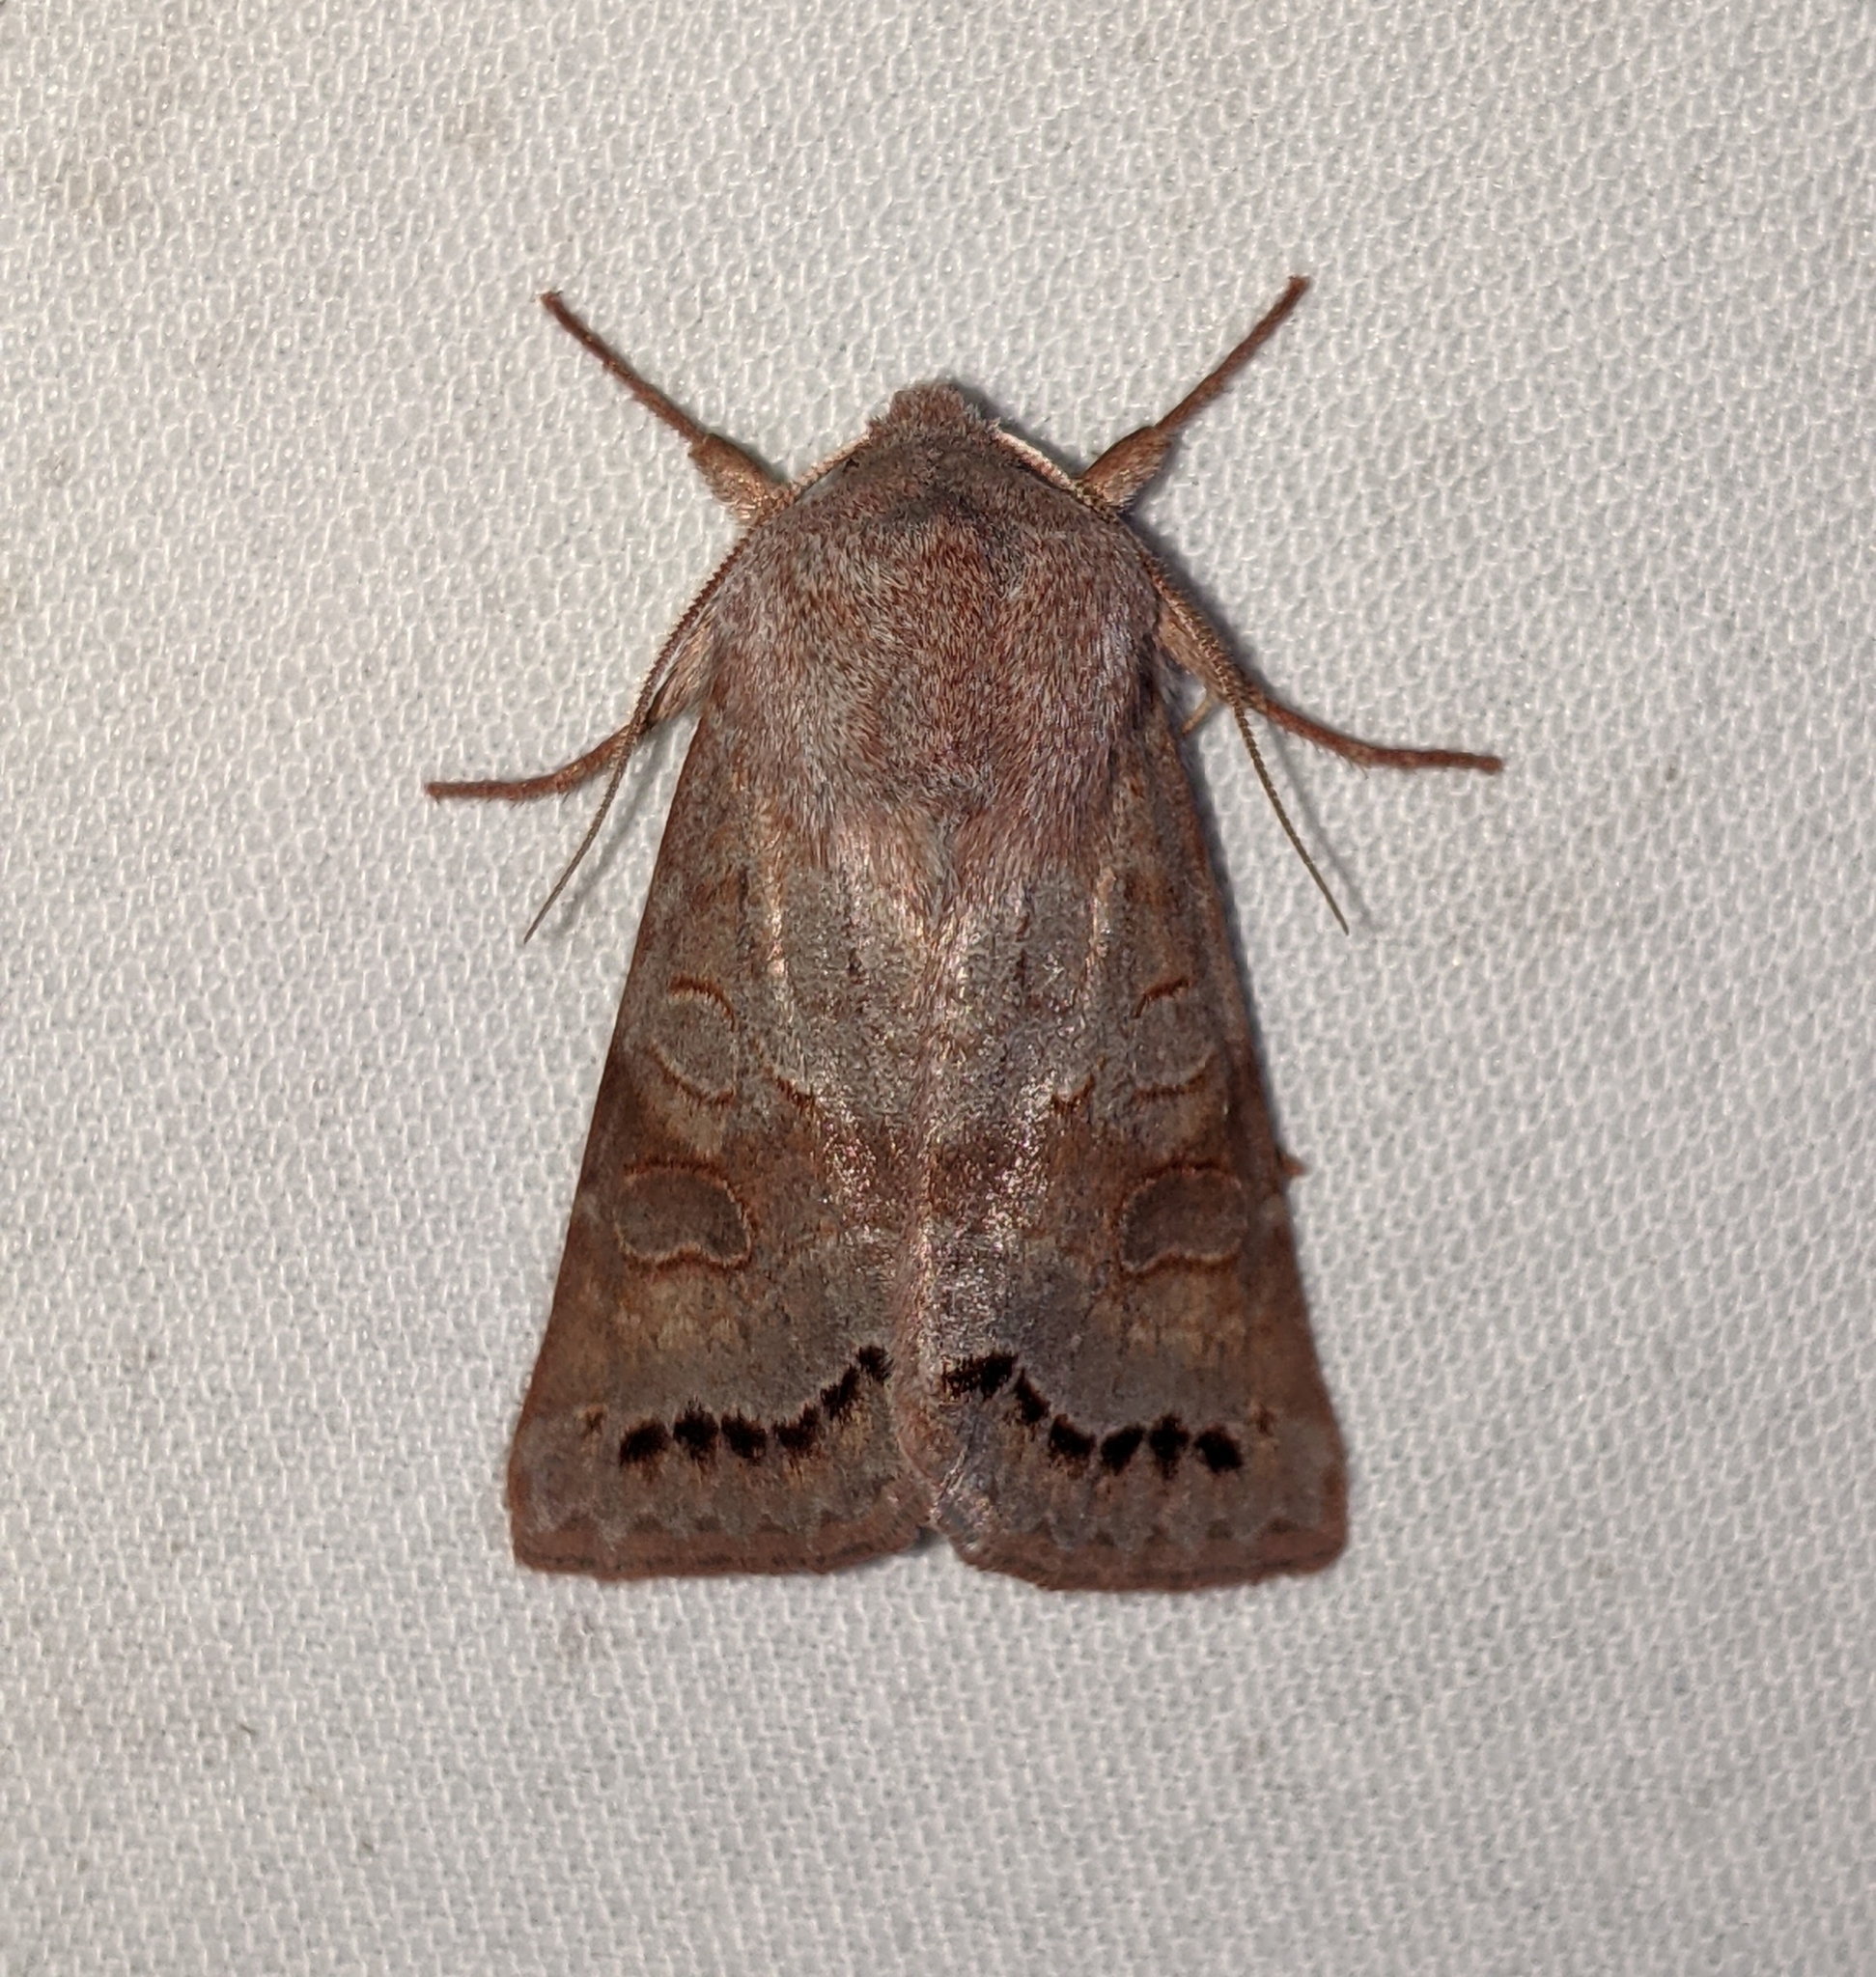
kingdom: Animalia
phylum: Arthropoda
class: Insecta
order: Lepidoptera
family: Noctuidae
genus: Orthosia
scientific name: Orthosia revicta
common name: Rusty whitesided caterpillar
